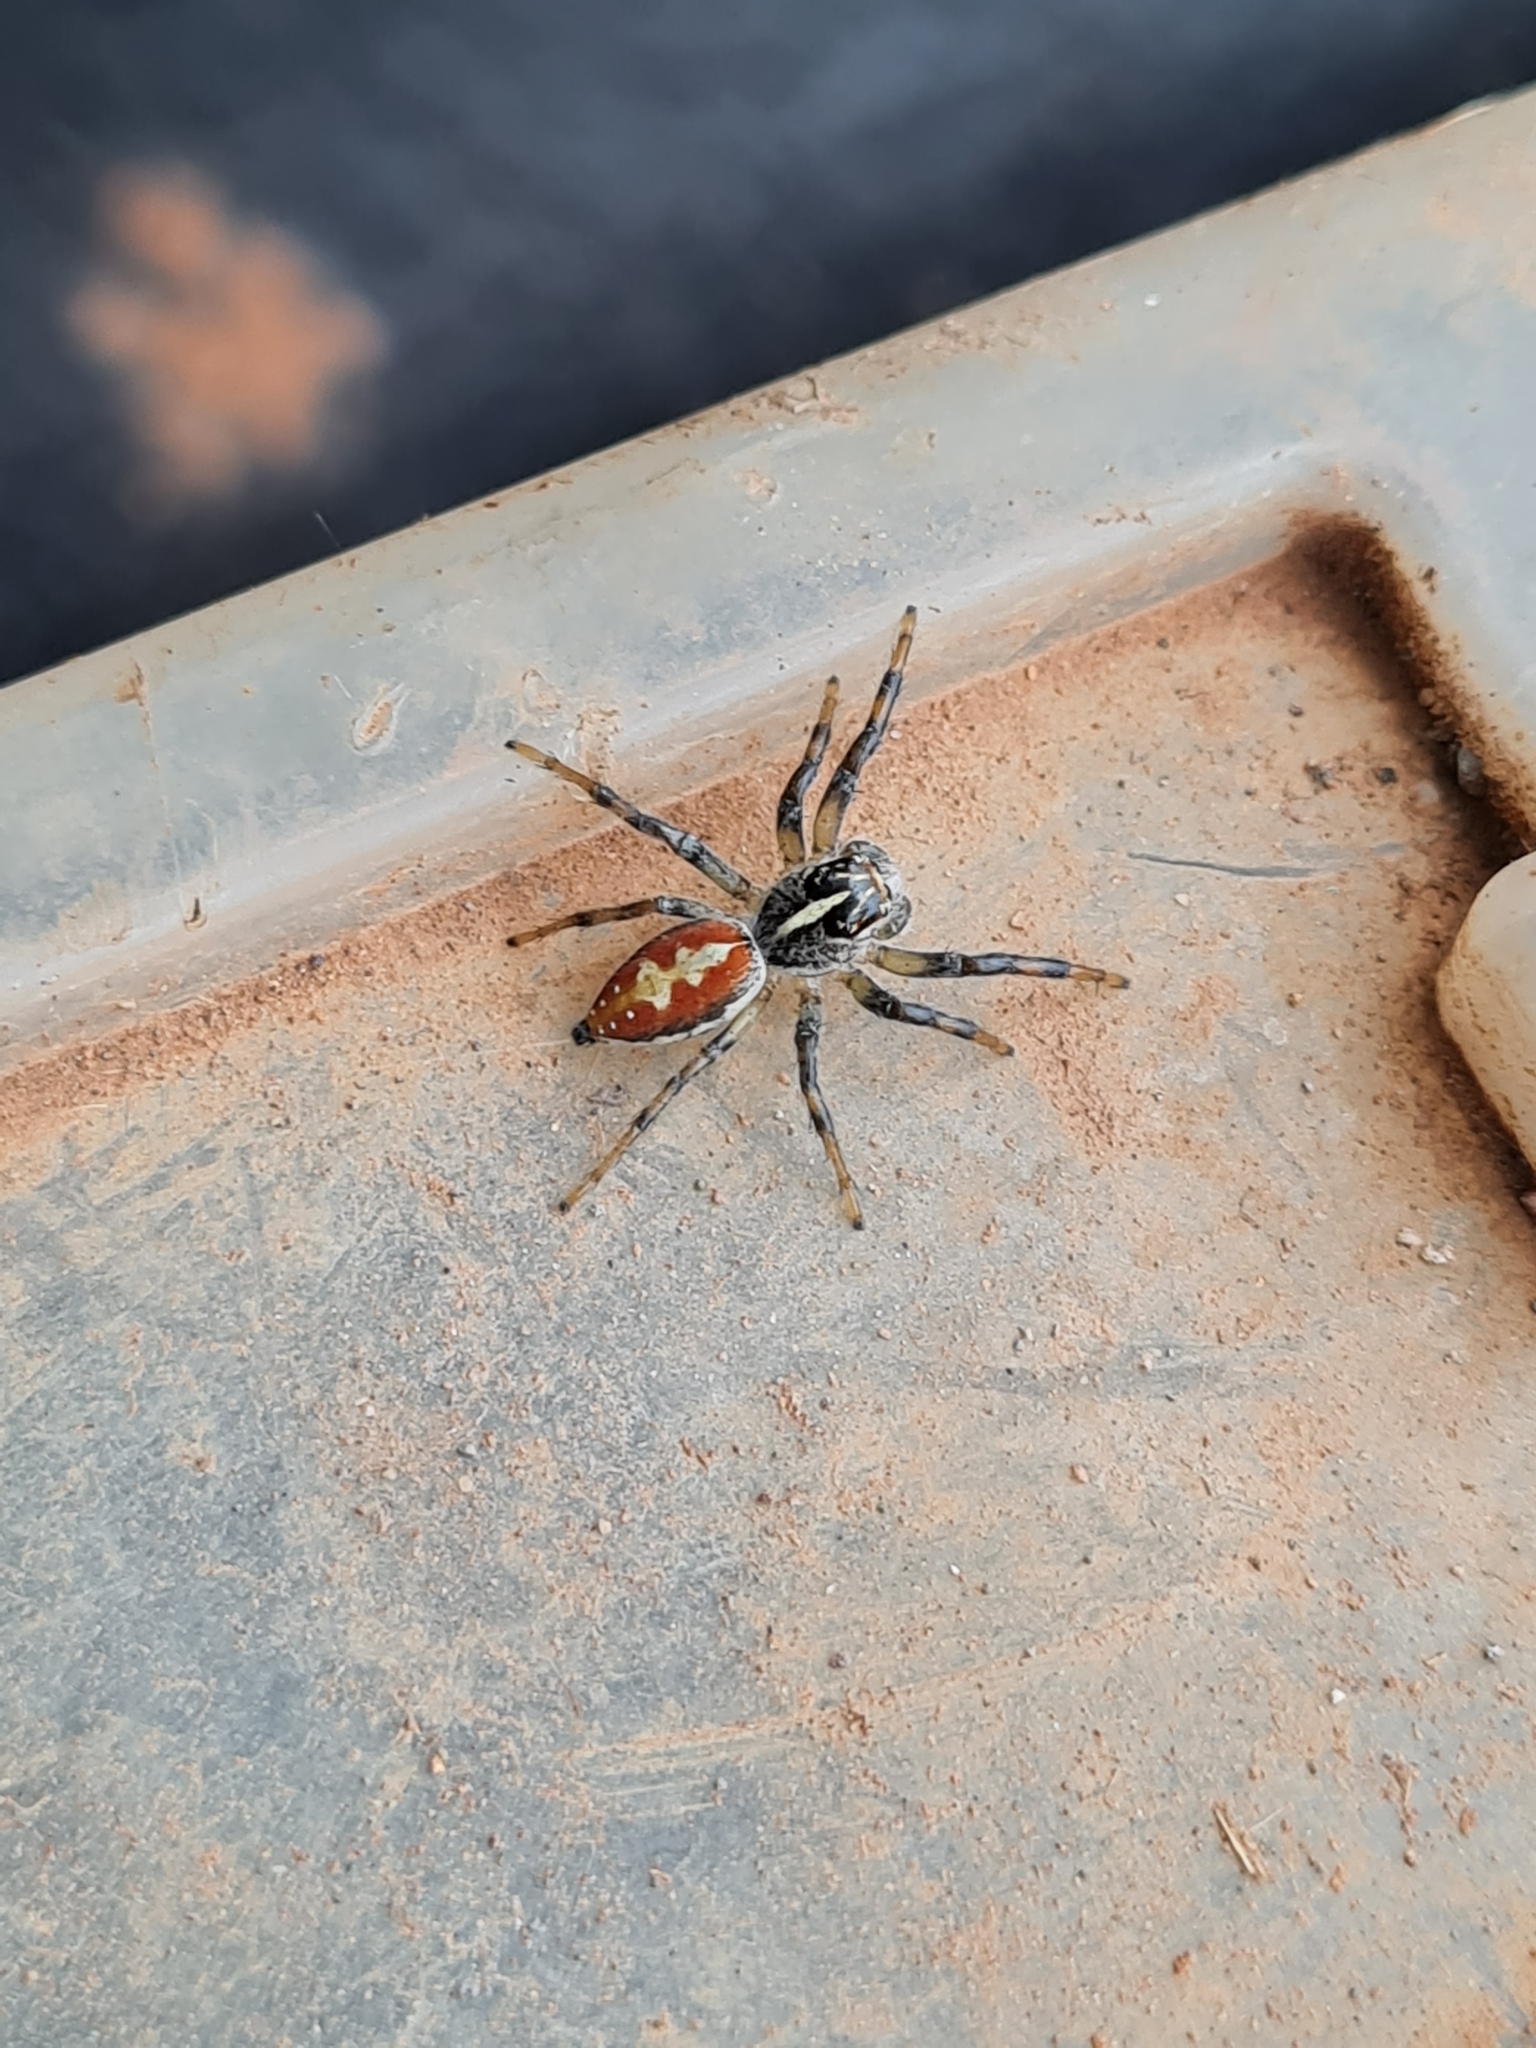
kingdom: Animalia
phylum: Arthropoda
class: Arachnida
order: Araneae
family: Salticidae
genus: Frigga
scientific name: Frigga pratensis
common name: Jumping spiders
